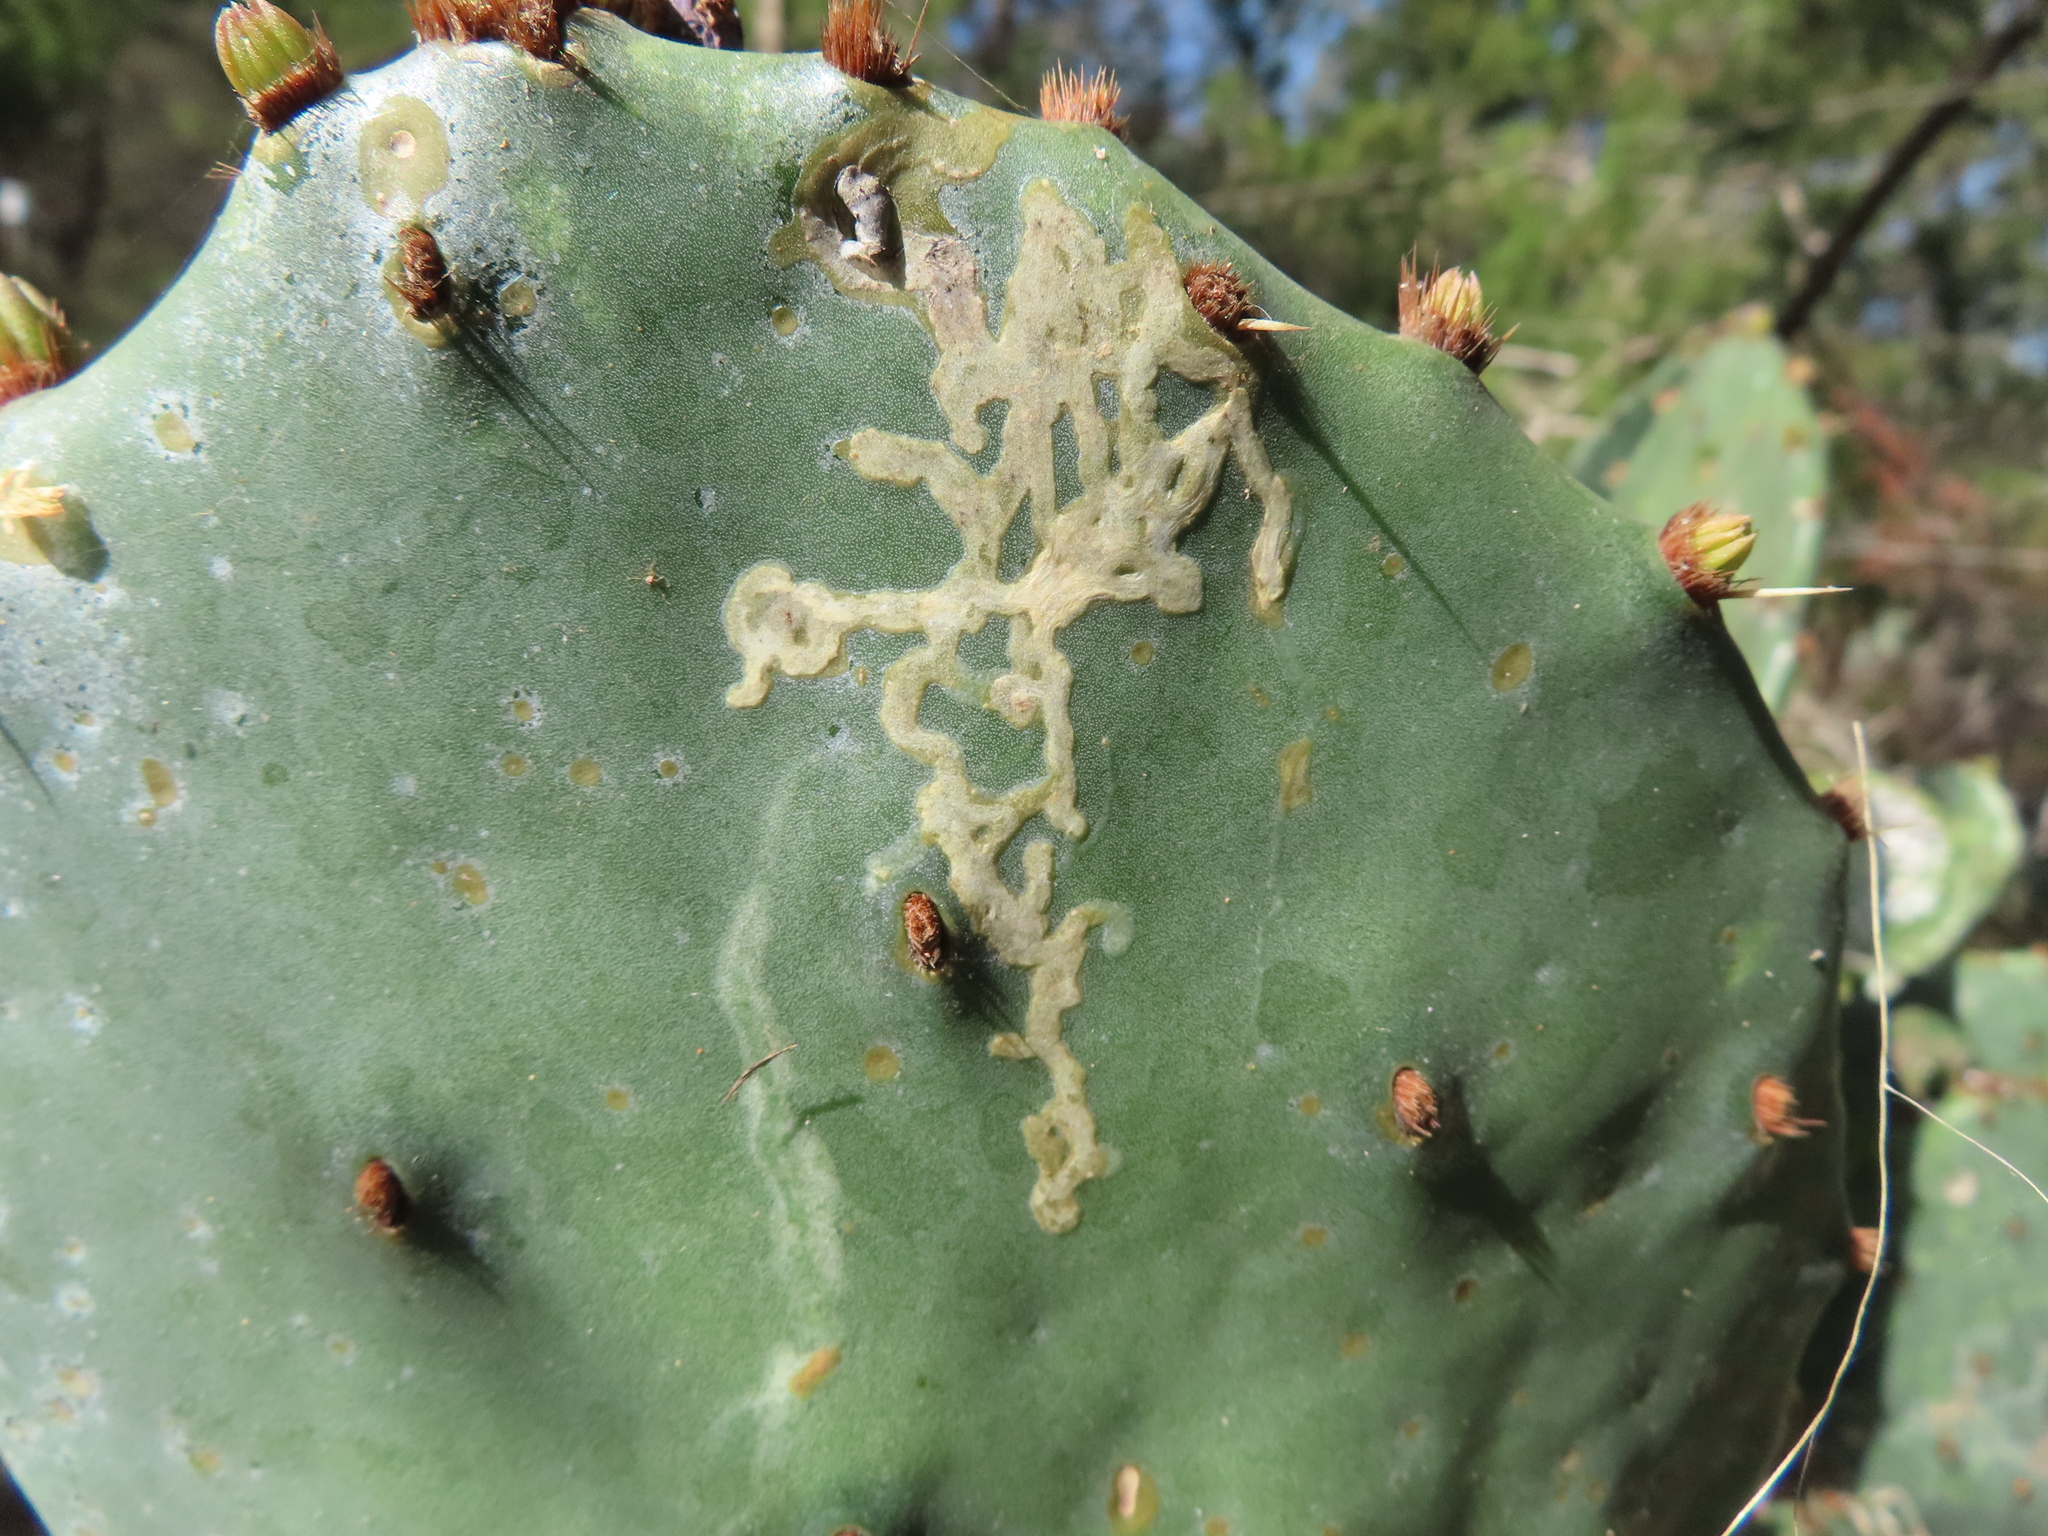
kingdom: Animalia
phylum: Arthropoda
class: Insecta
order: Lepidoptera
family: Gracillariidae
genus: Marmara
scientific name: Marmara opuntiella
